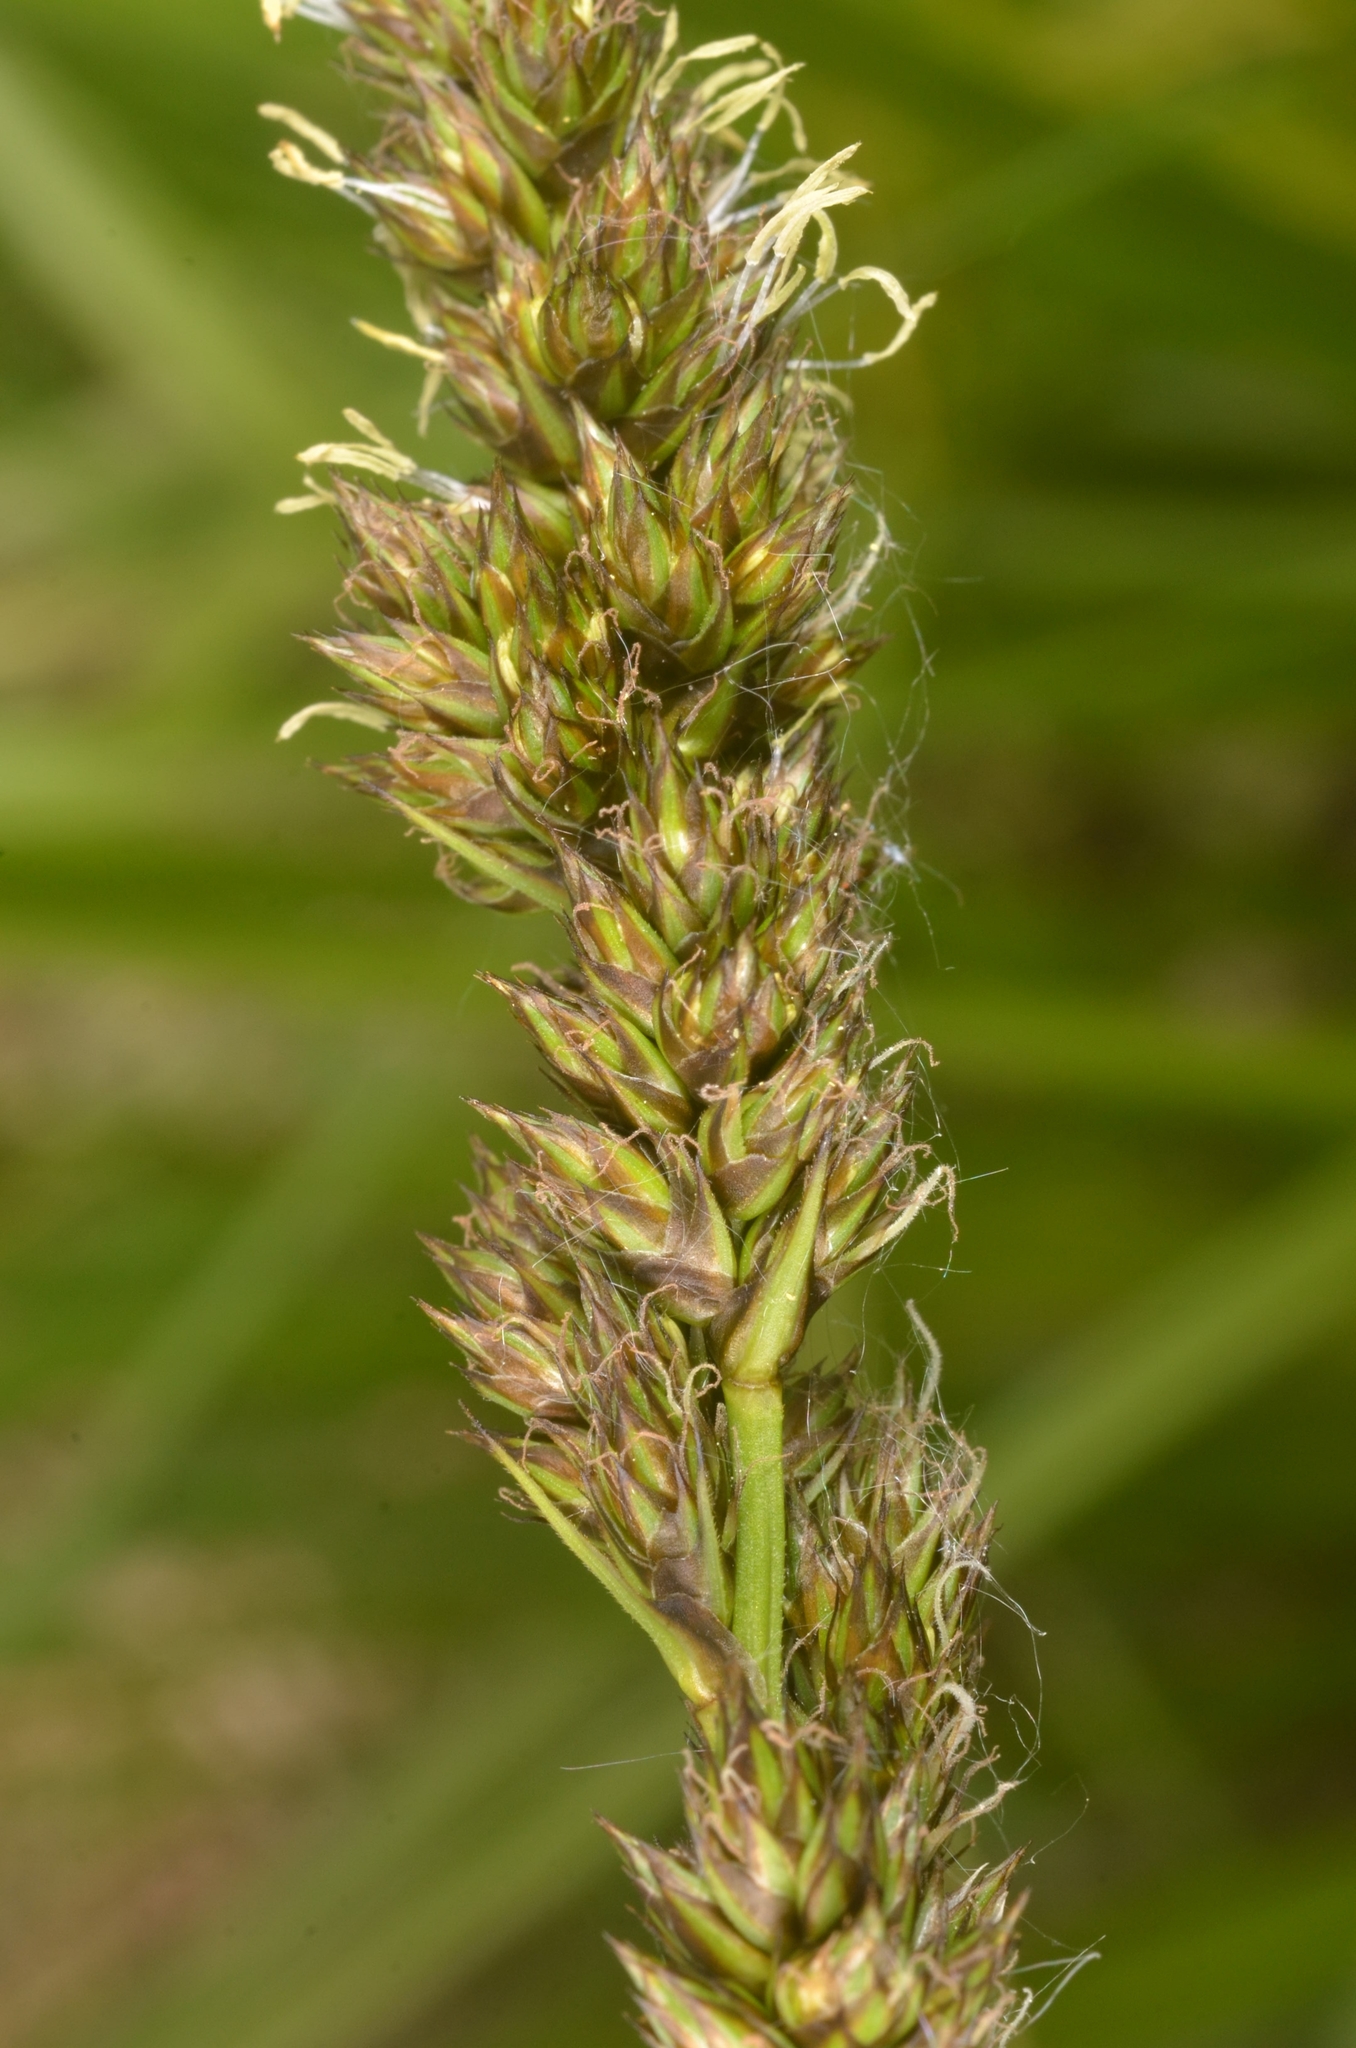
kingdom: Plantae
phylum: Tracheophyta
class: Liliopsida
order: Poales
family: Cyperaceae
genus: Carex
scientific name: Carex vulpina
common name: True fox-sedge
